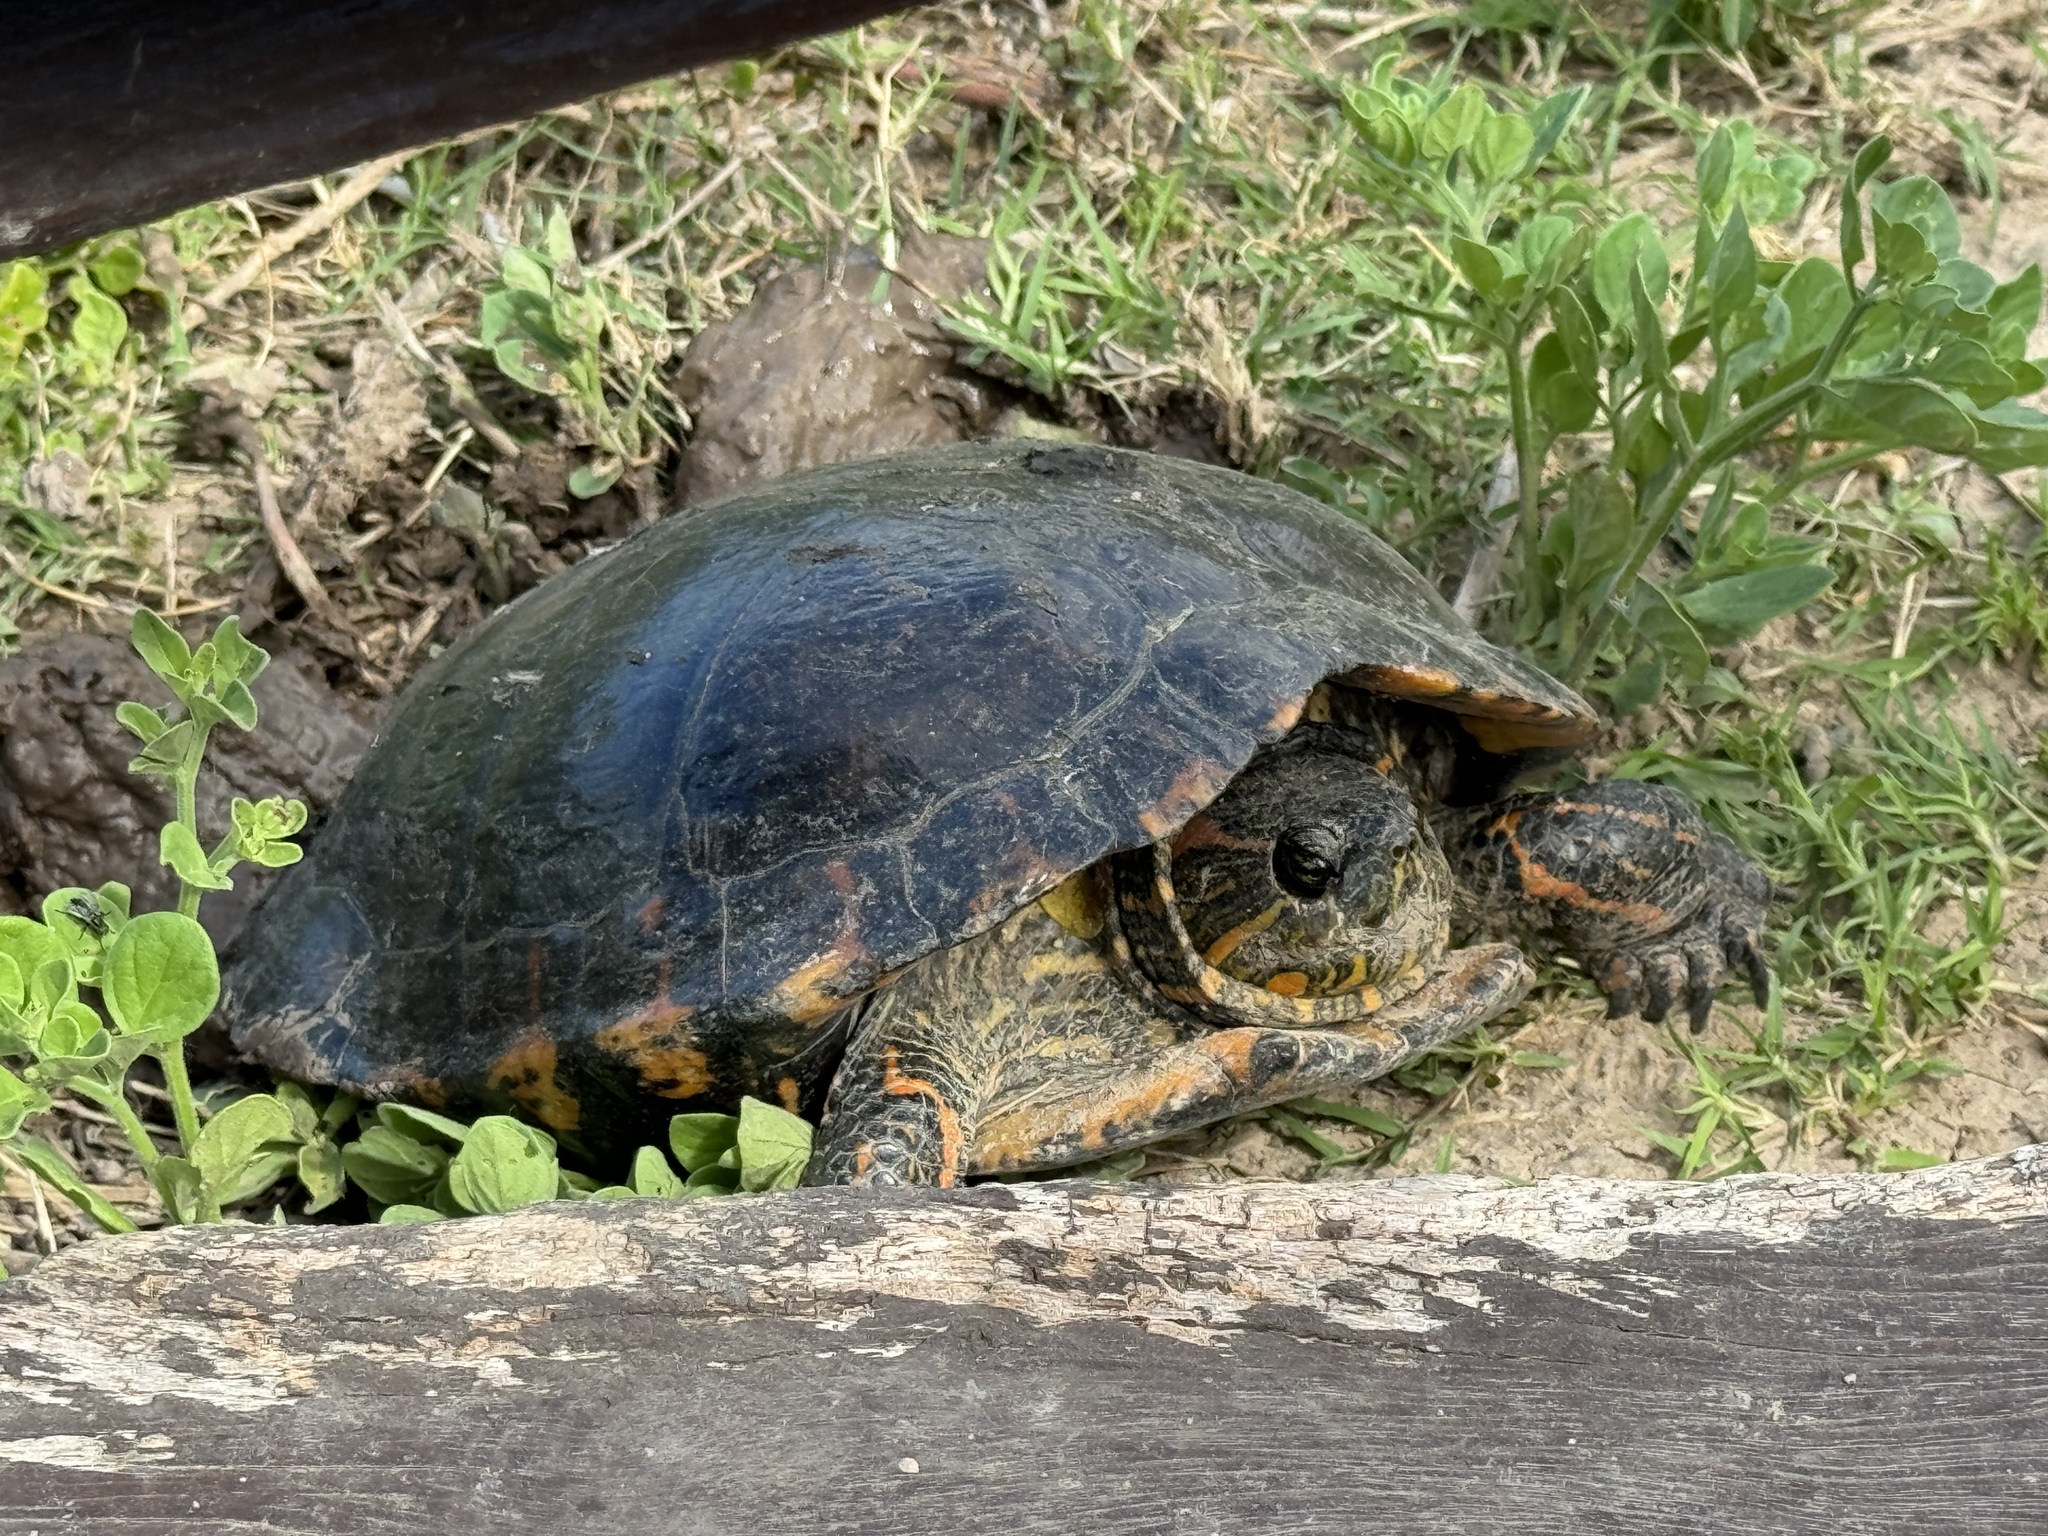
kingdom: Animalia
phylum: Chordata
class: Testudines
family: Emydidae
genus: Trachemys
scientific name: Trachemys dorbigni
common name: Black-bellied slider
